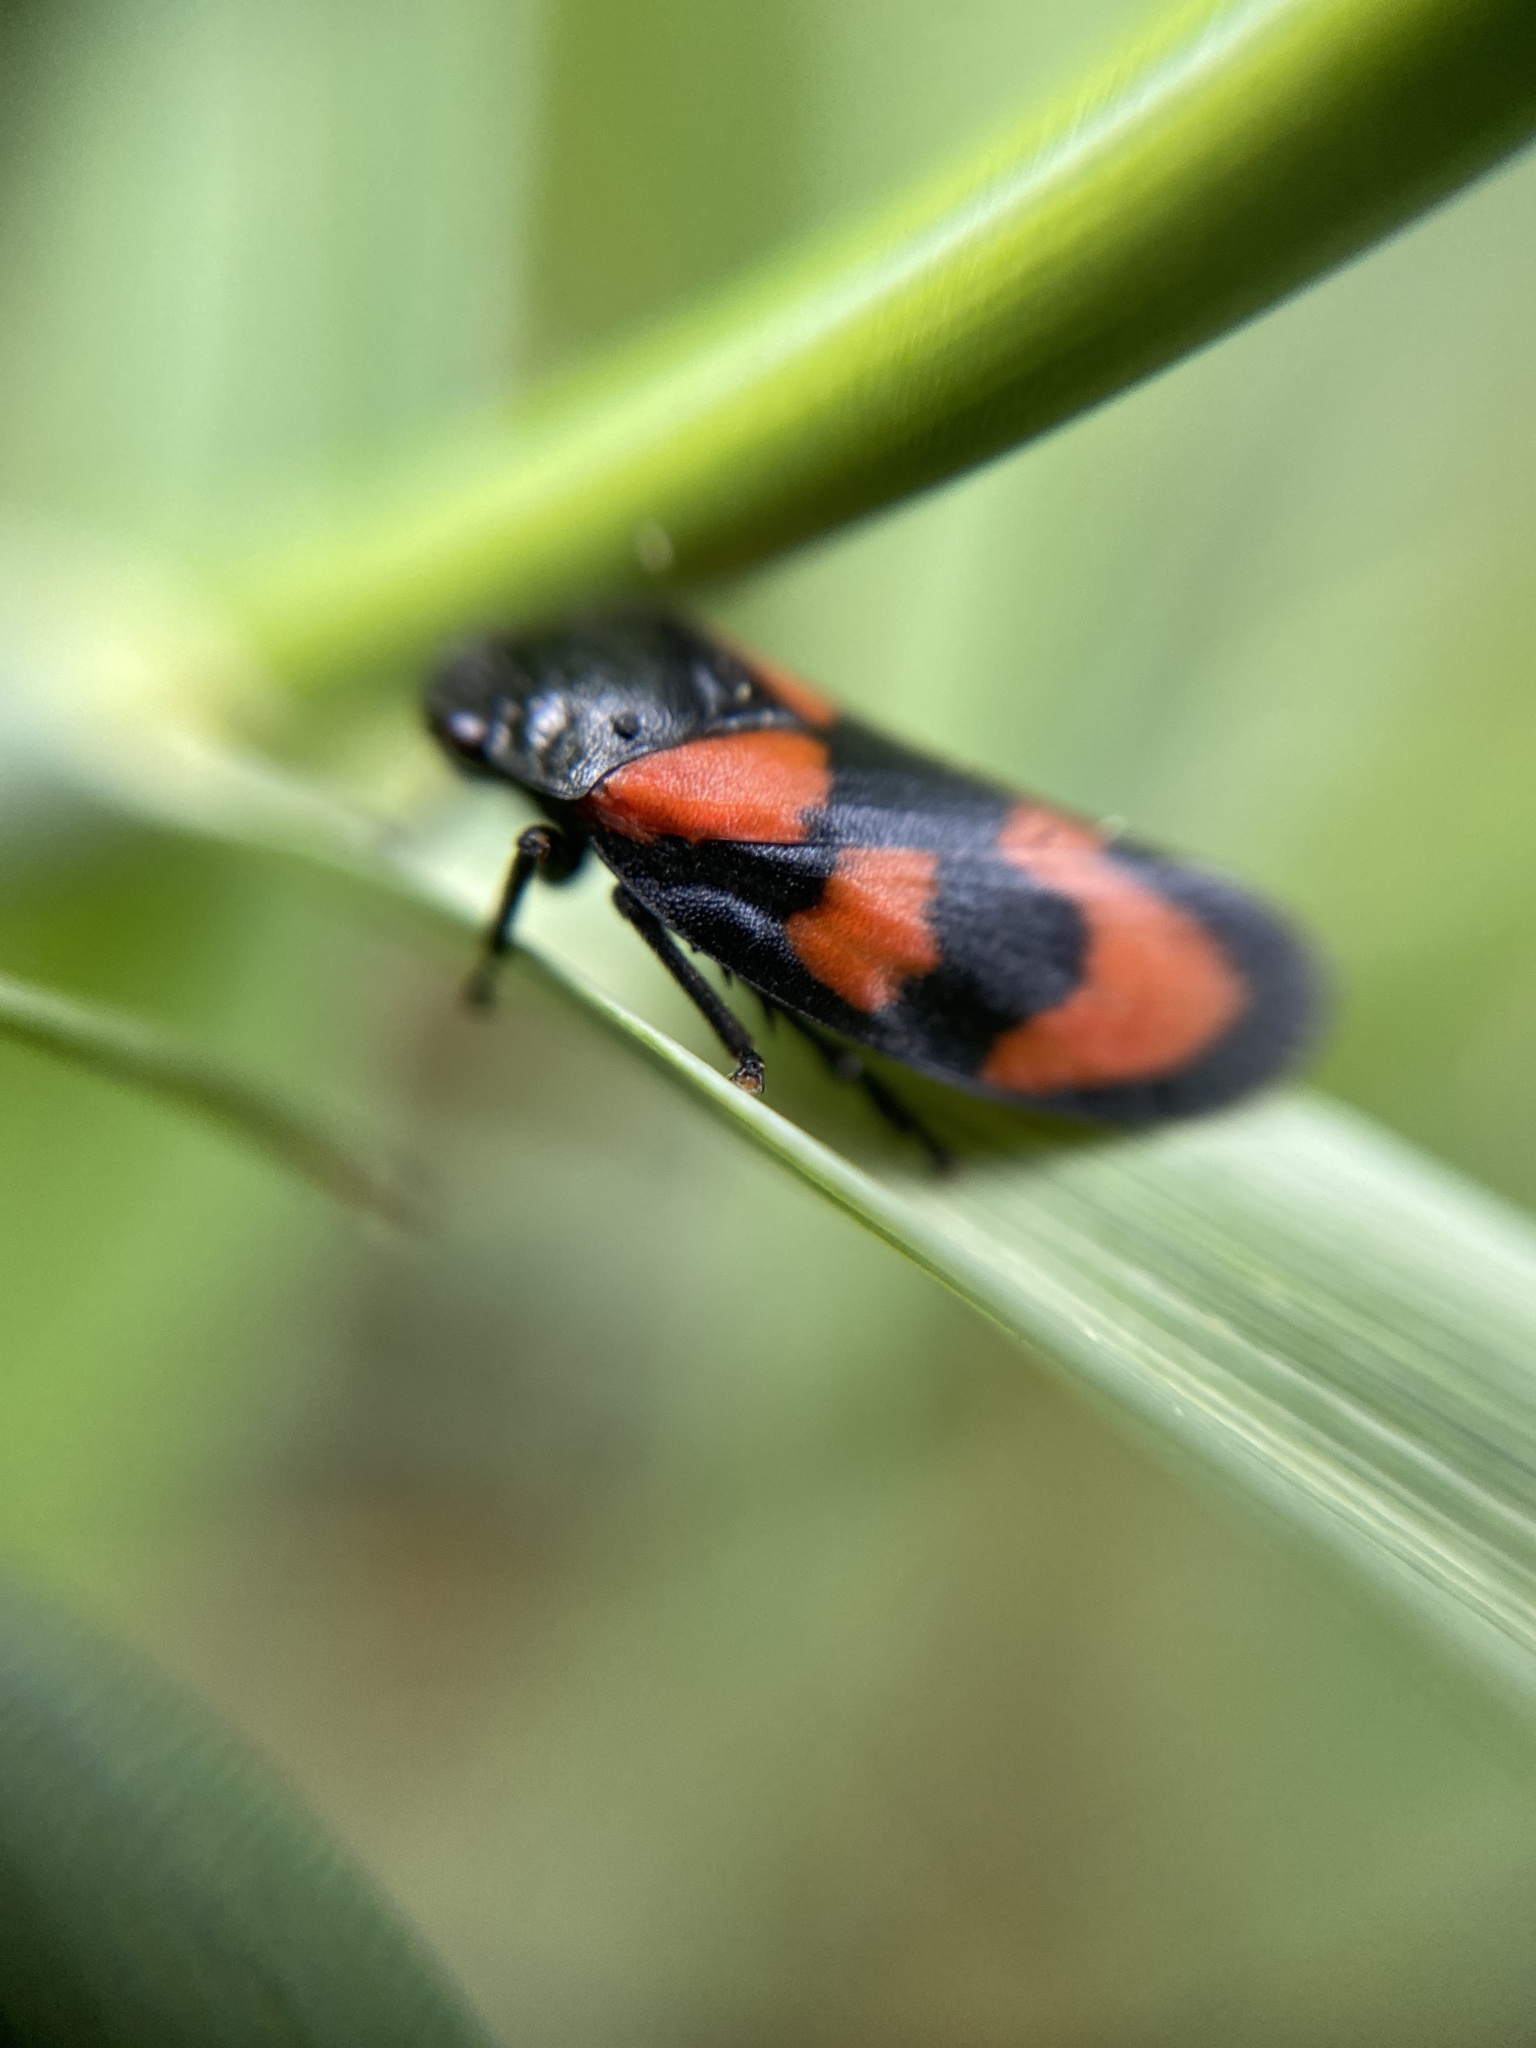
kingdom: Animalia
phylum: Arthropoda
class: Insecta
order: Hemiptera
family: Cercopidae
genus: Cercopis
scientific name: Cercopis vulnerata
